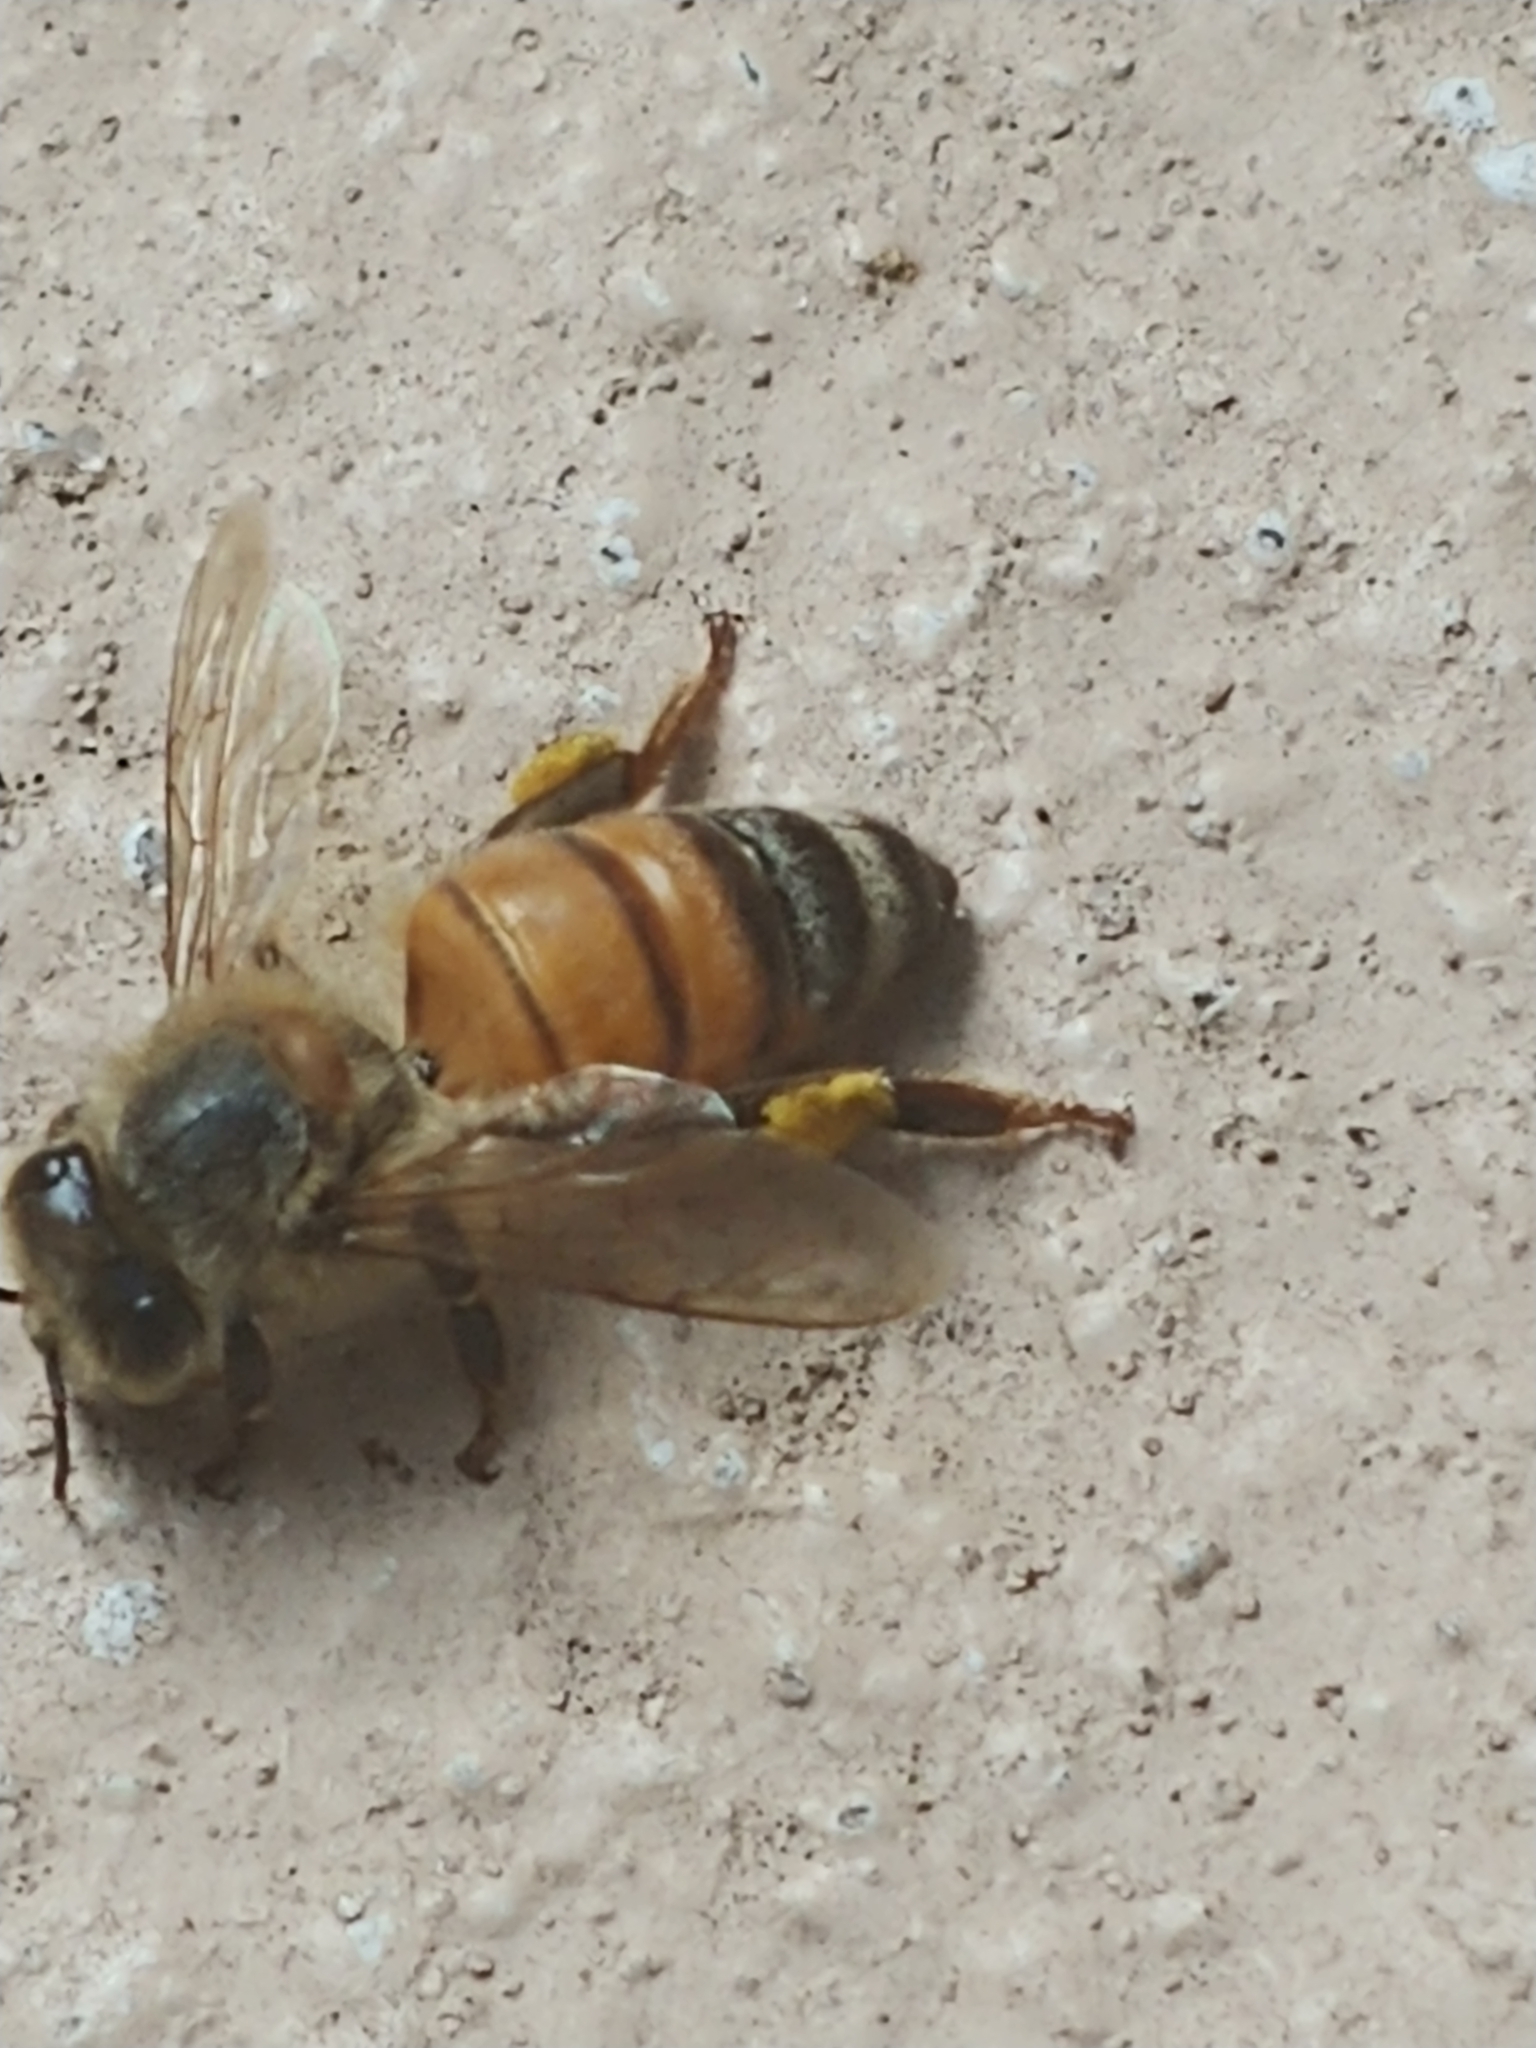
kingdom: Animalia
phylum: Arthropoda
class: Insecta
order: Hymenoptera
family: Apidae
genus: Apis
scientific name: Apis mellifera
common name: Honey bee
